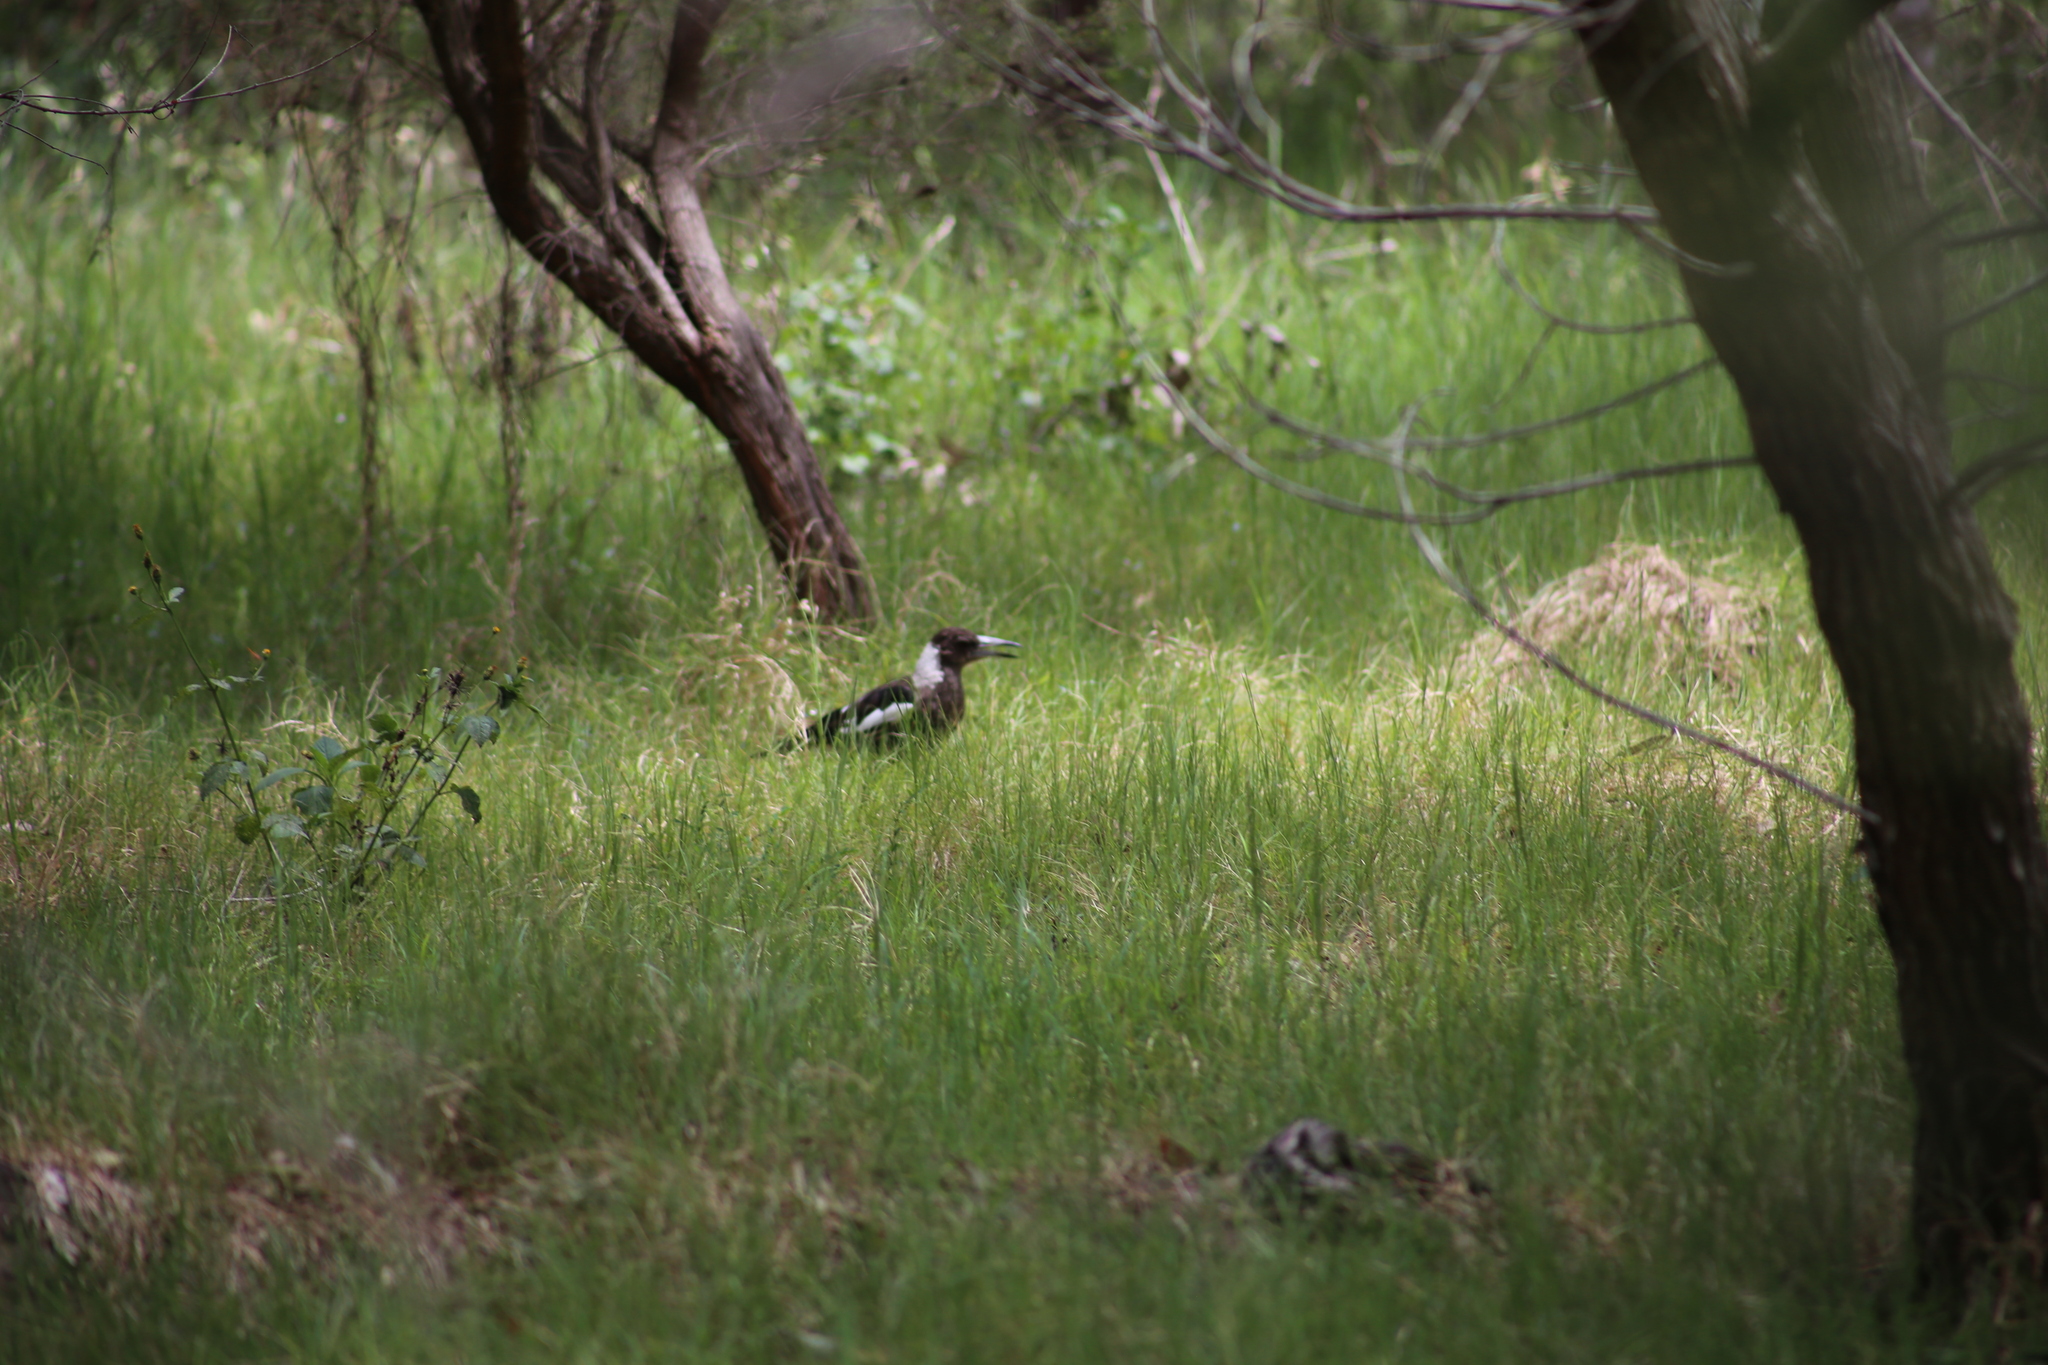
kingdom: Animalia
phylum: Chordata
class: Aves
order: Passeriformes
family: Cracticidae
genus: Gymnorhina
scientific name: Gymnorhina tibicen
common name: Australian magpie
